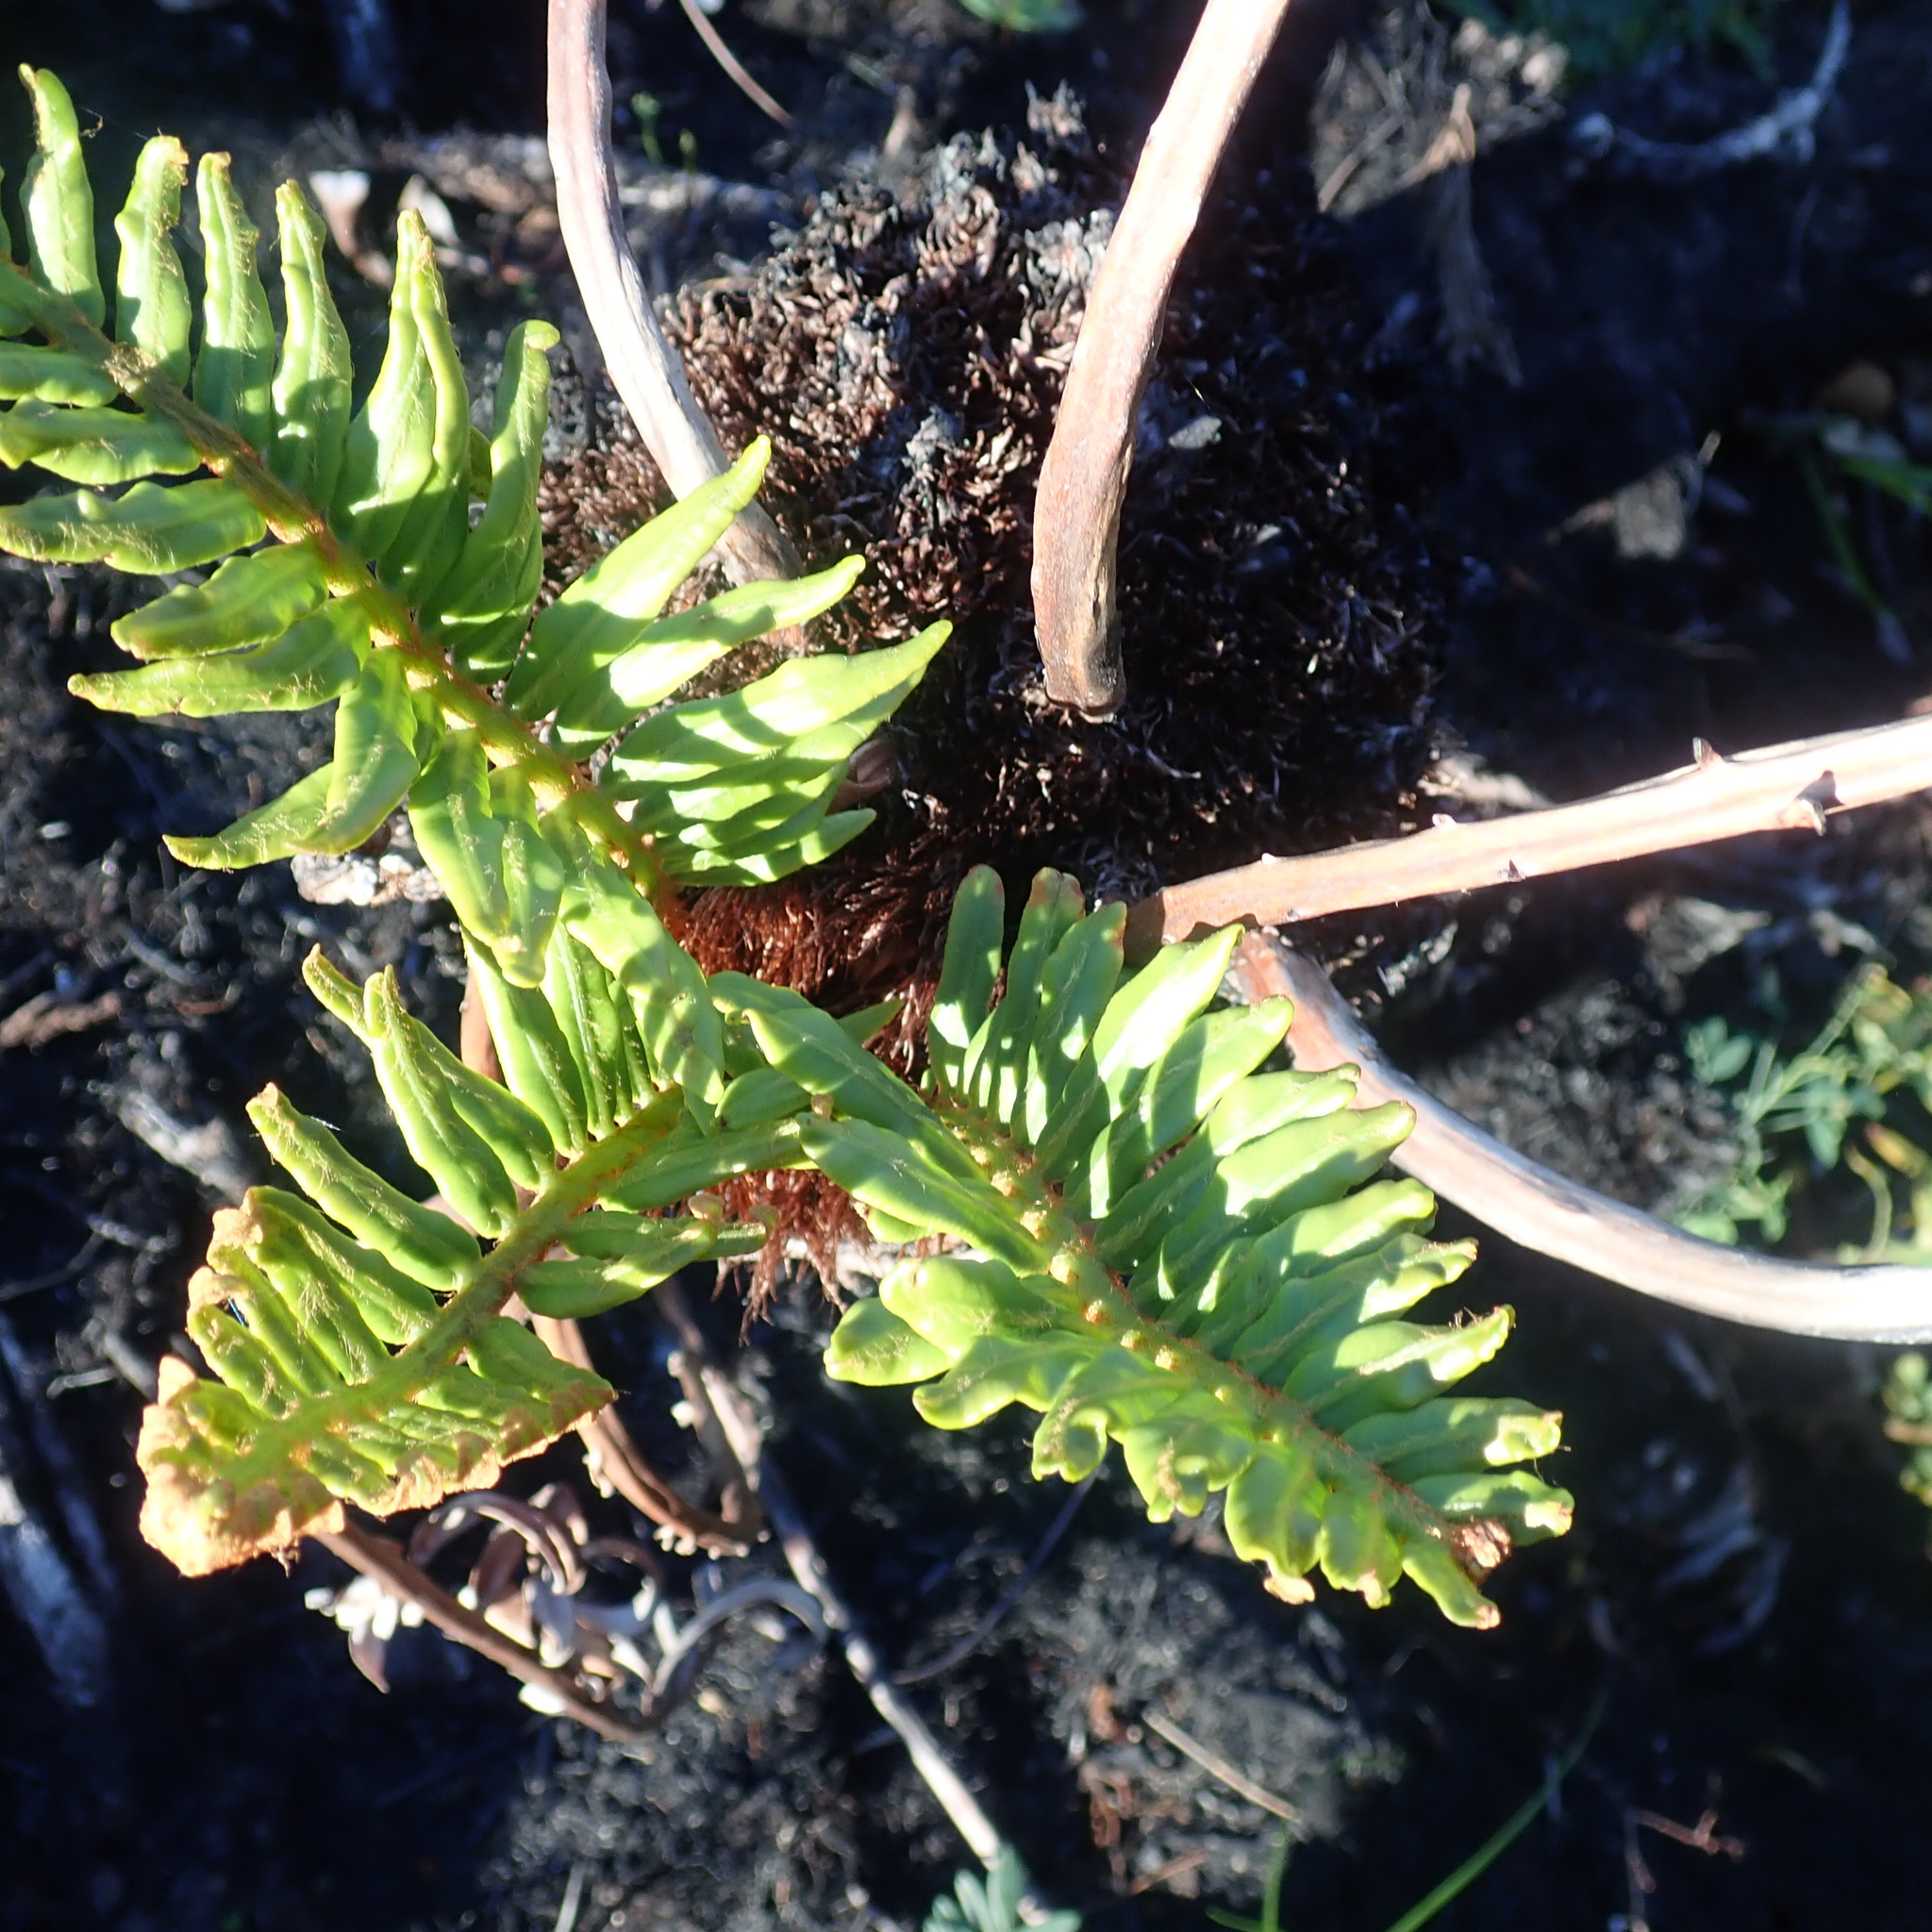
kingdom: Plantae
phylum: Tracheophyta
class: Polypodiopsida
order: Polypodiales
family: Blechnaceae
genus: Lomariocycas
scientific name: Lomariocycas tabularis
